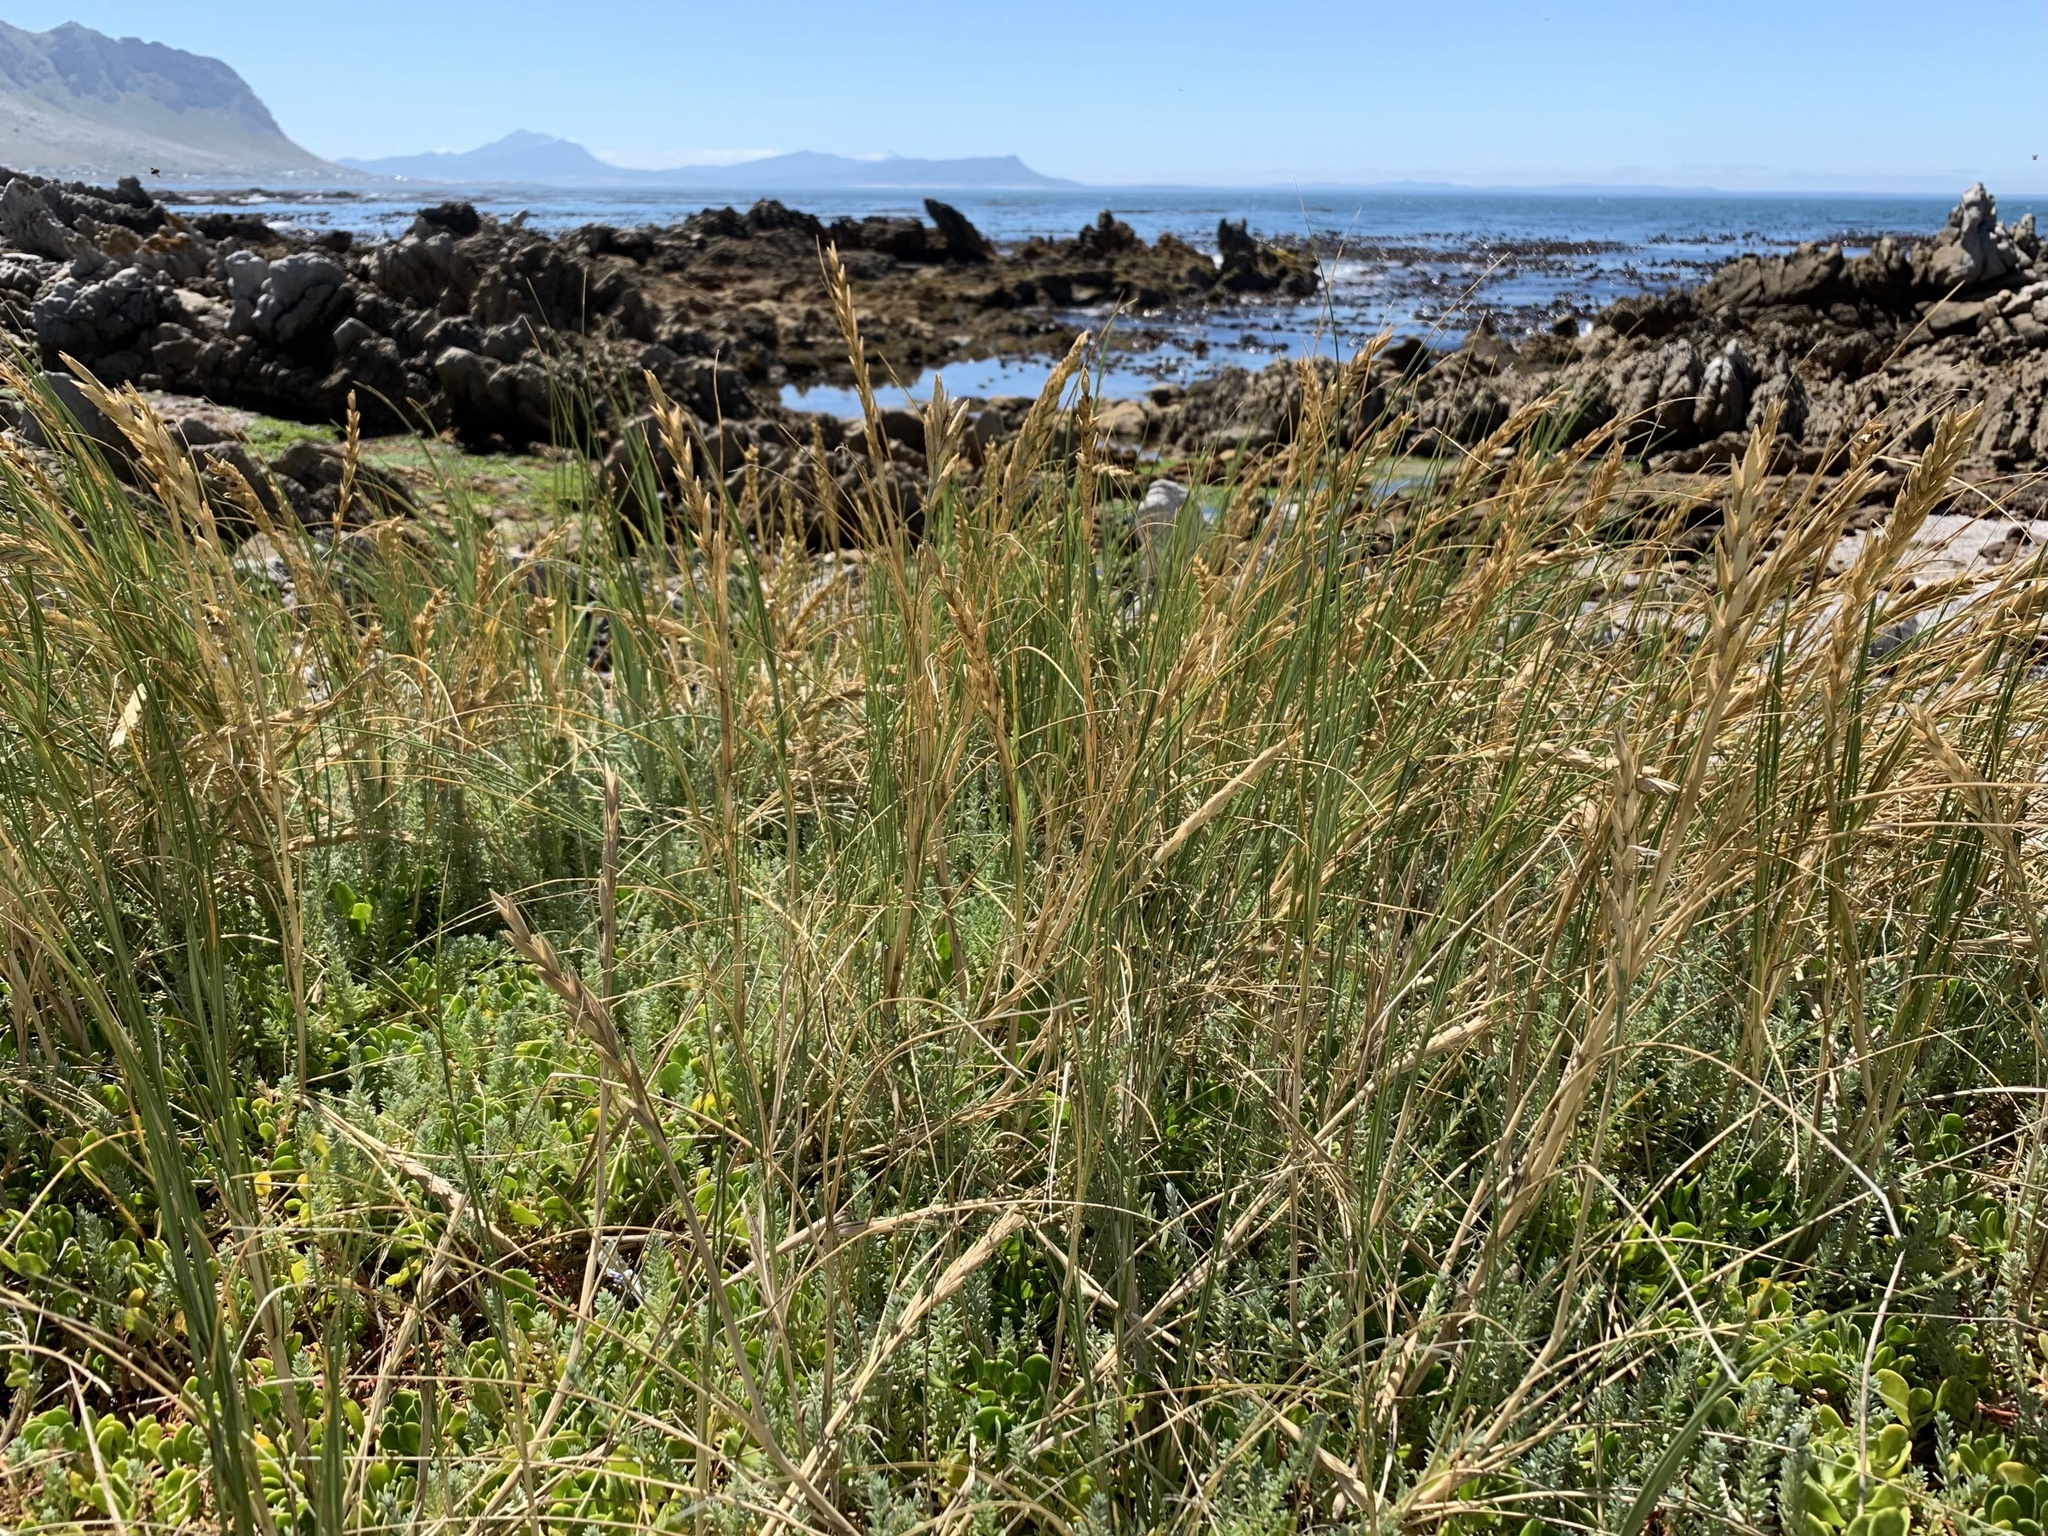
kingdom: Plantae
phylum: Tracheophyta
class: Liliopsida
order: Poales
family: Poaceae
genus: Thinopyrum
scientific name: Thinopyrum distichum
